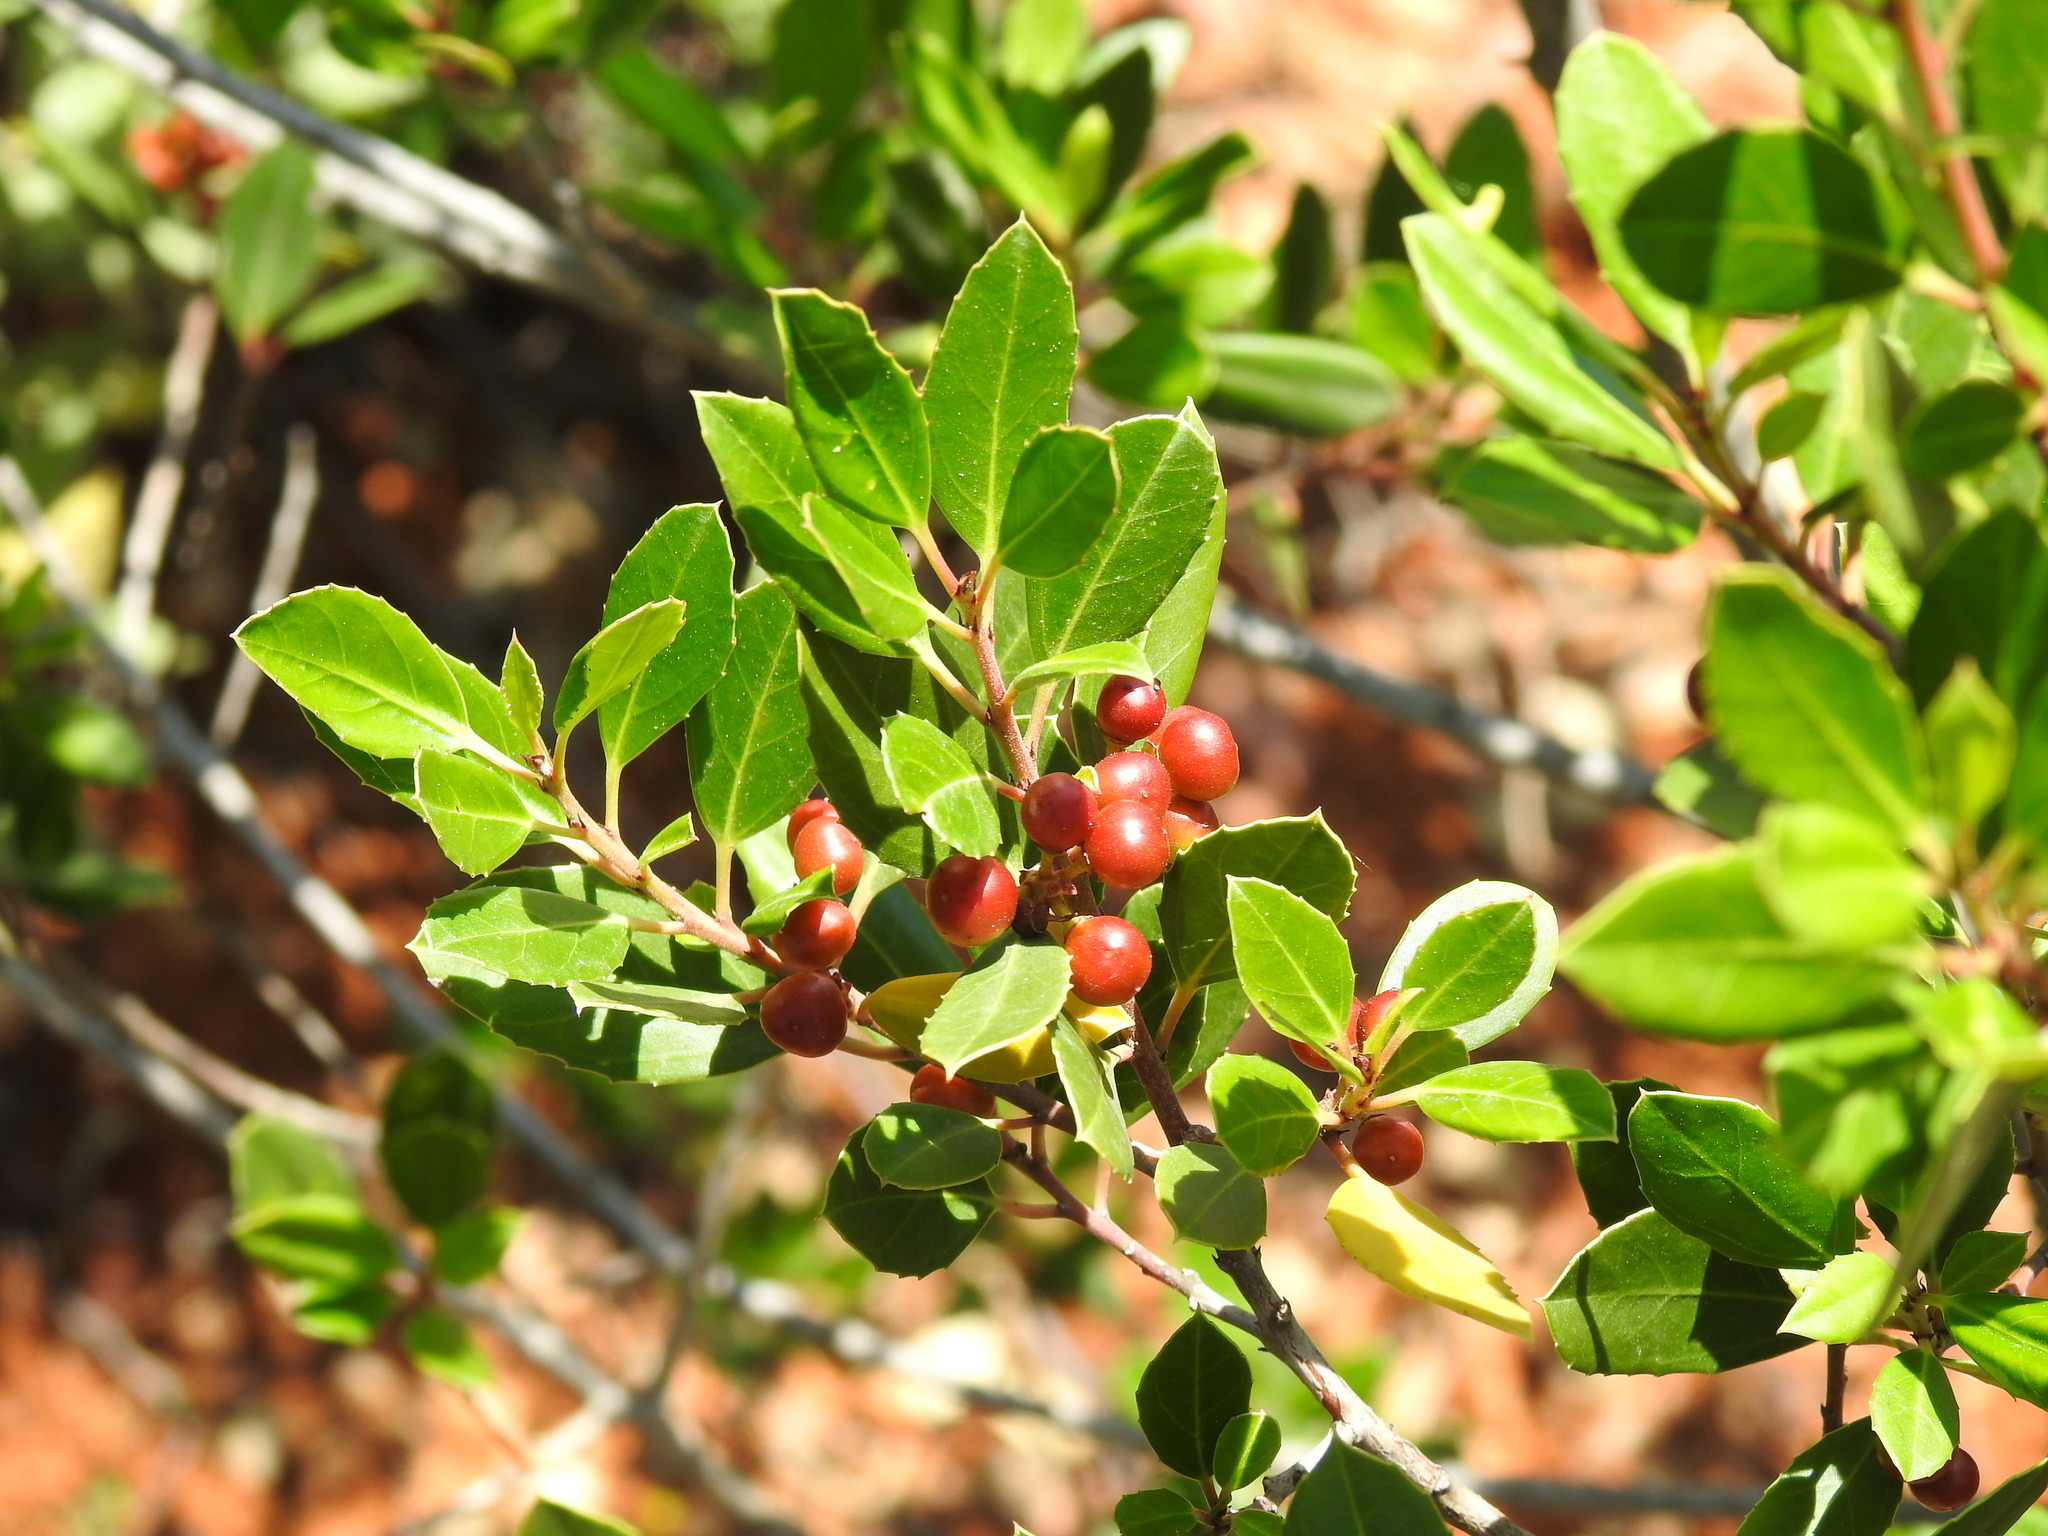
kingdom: Plantae
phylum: Tracheophyta
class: Magnoliopsida
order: Rosales
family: Rhamnaceae
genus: Rhamnus
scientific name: Rhamnus alaternus
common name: Mediterranean buckthorn
